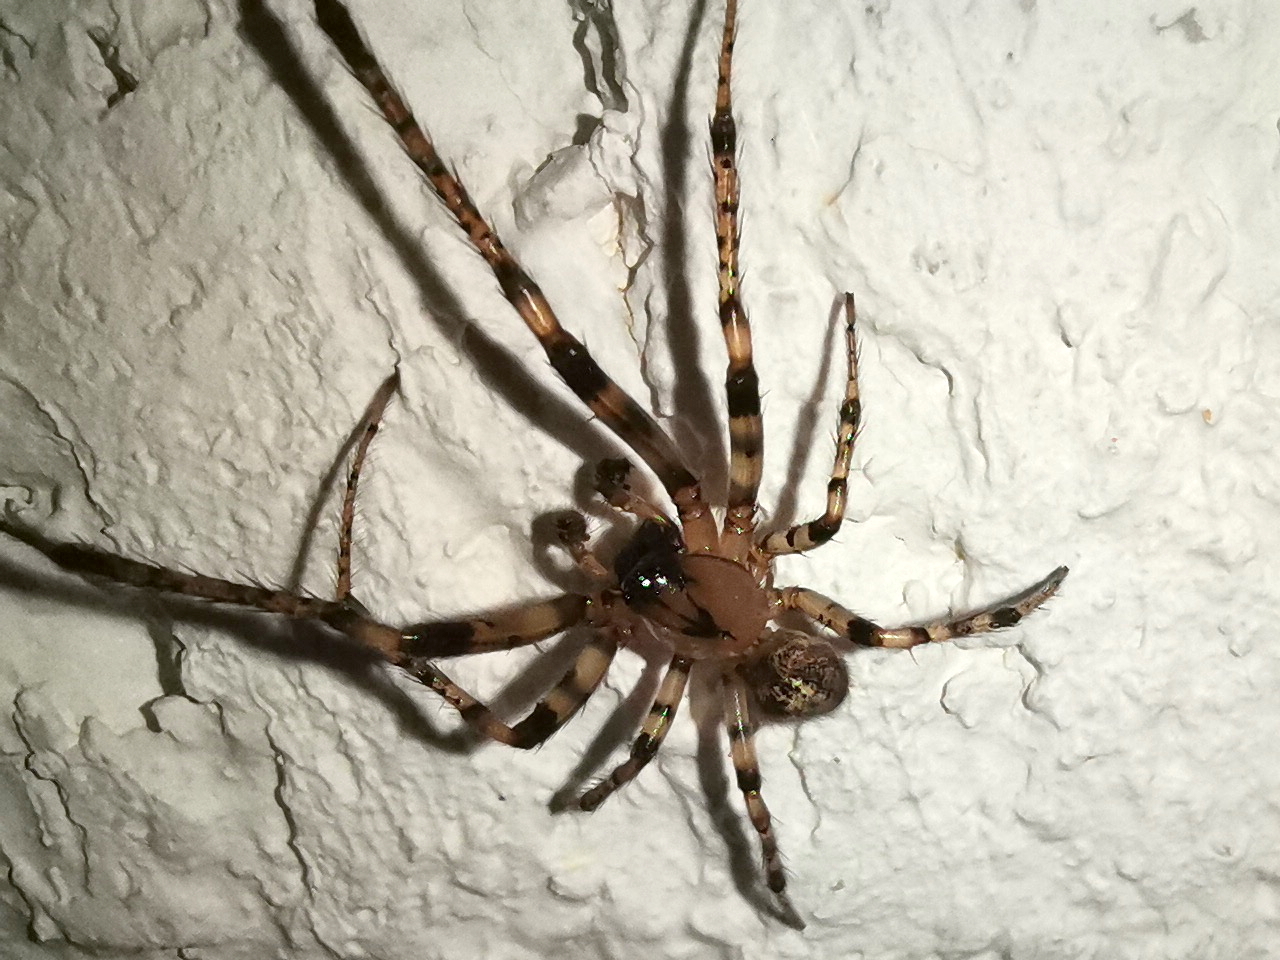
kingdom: Animalia
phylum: Arthropoda
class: Arachnida
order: Araneae
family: Araneidae
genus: Leviellus
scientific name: Leviellus thorelli
